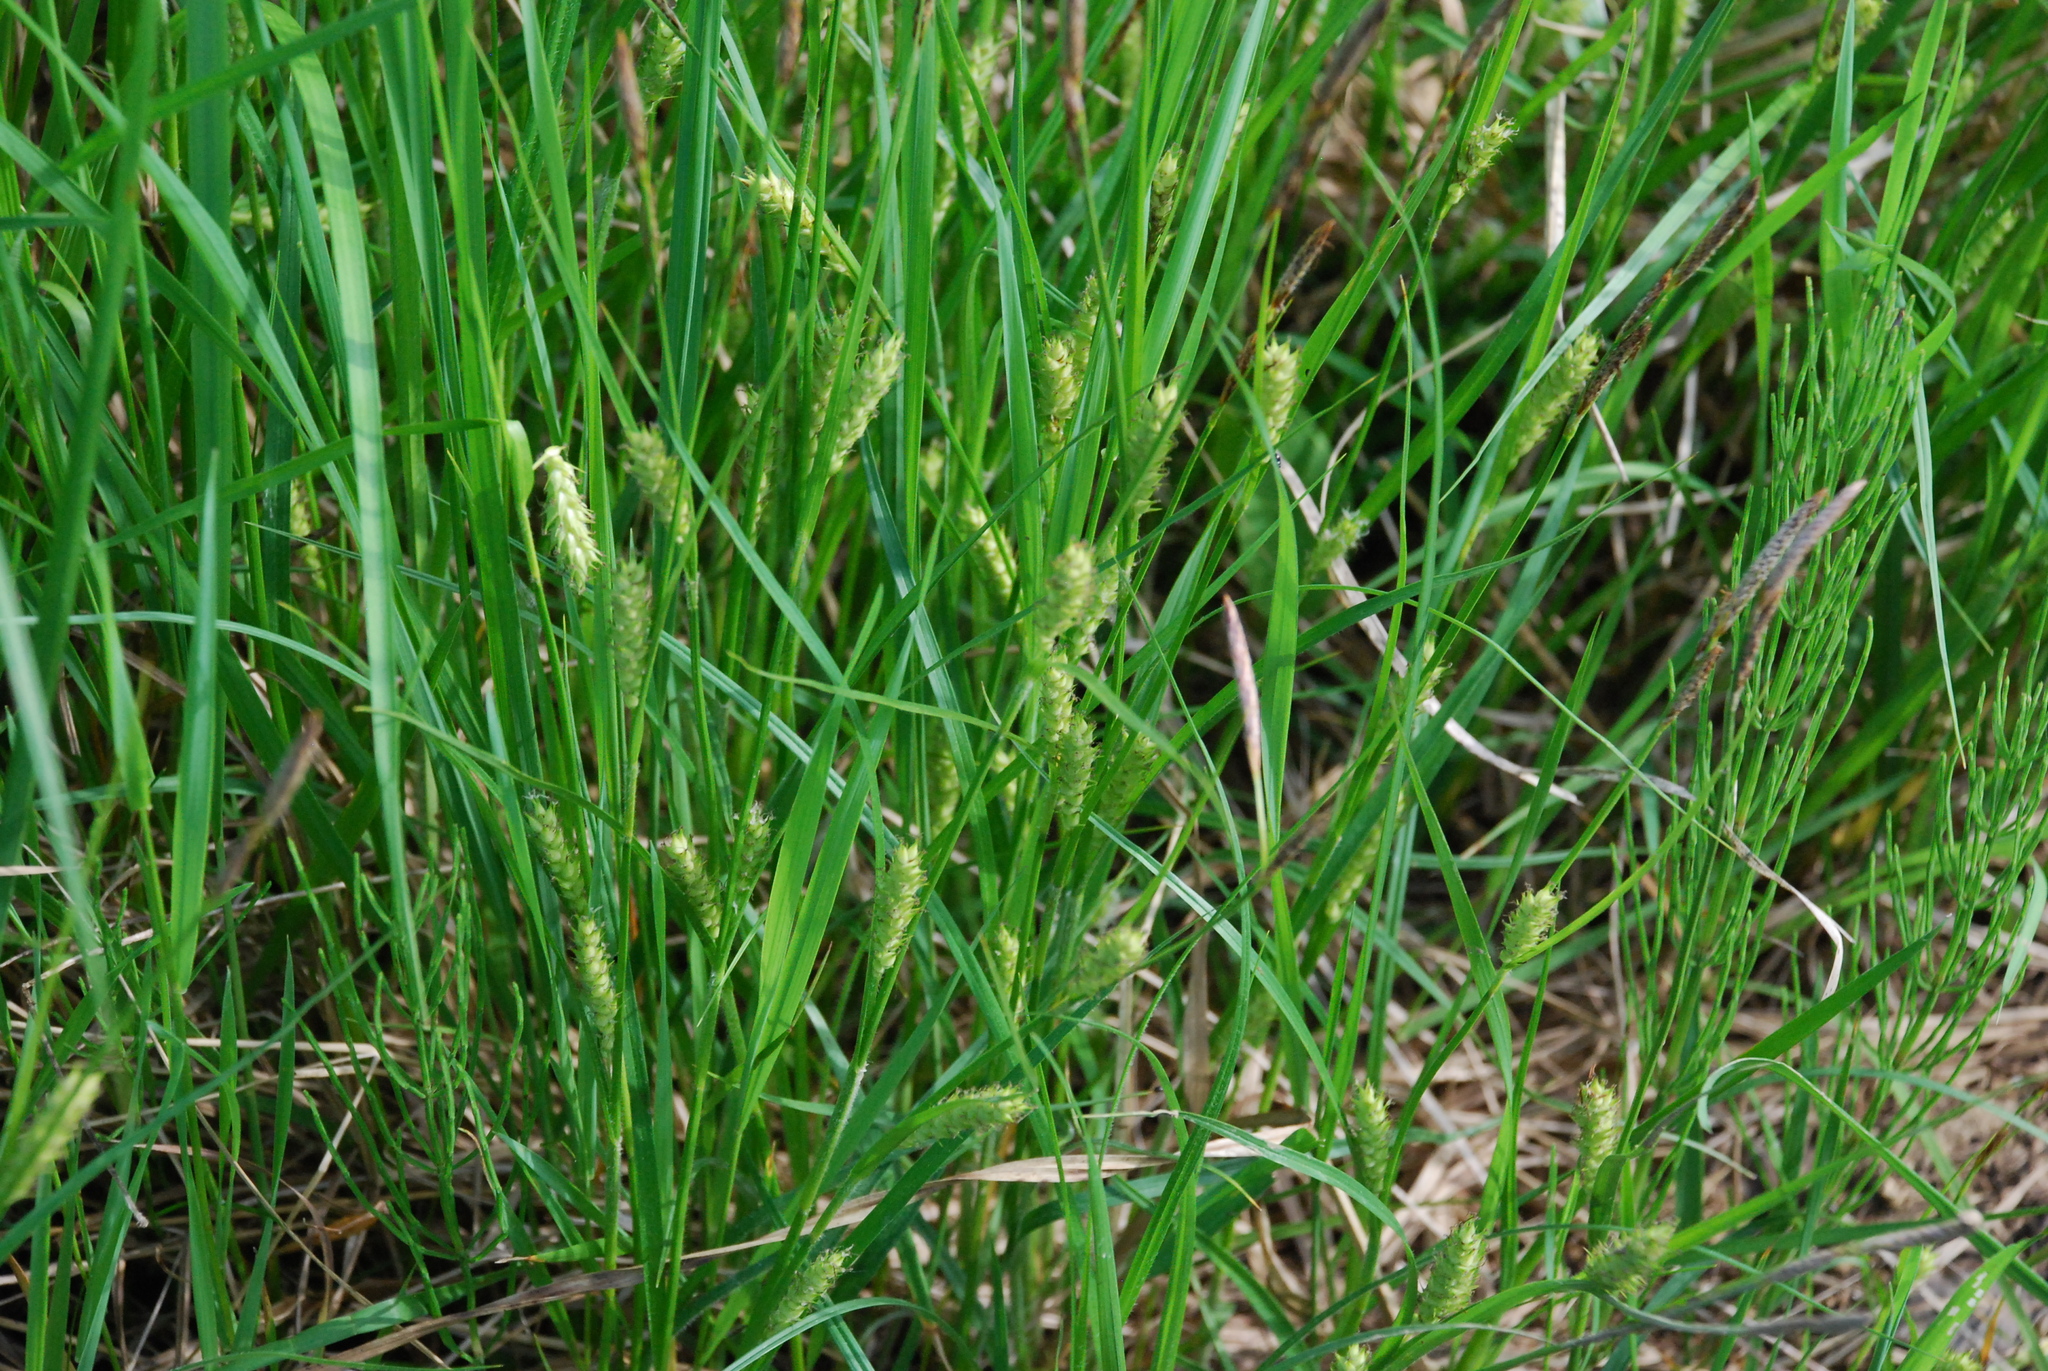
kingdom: Plantae
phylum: Tracheophyta
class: Liliopsida
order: Poales
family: Cyperaceae
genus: Carex
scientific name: Carex hirta
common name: Hairy sedge
